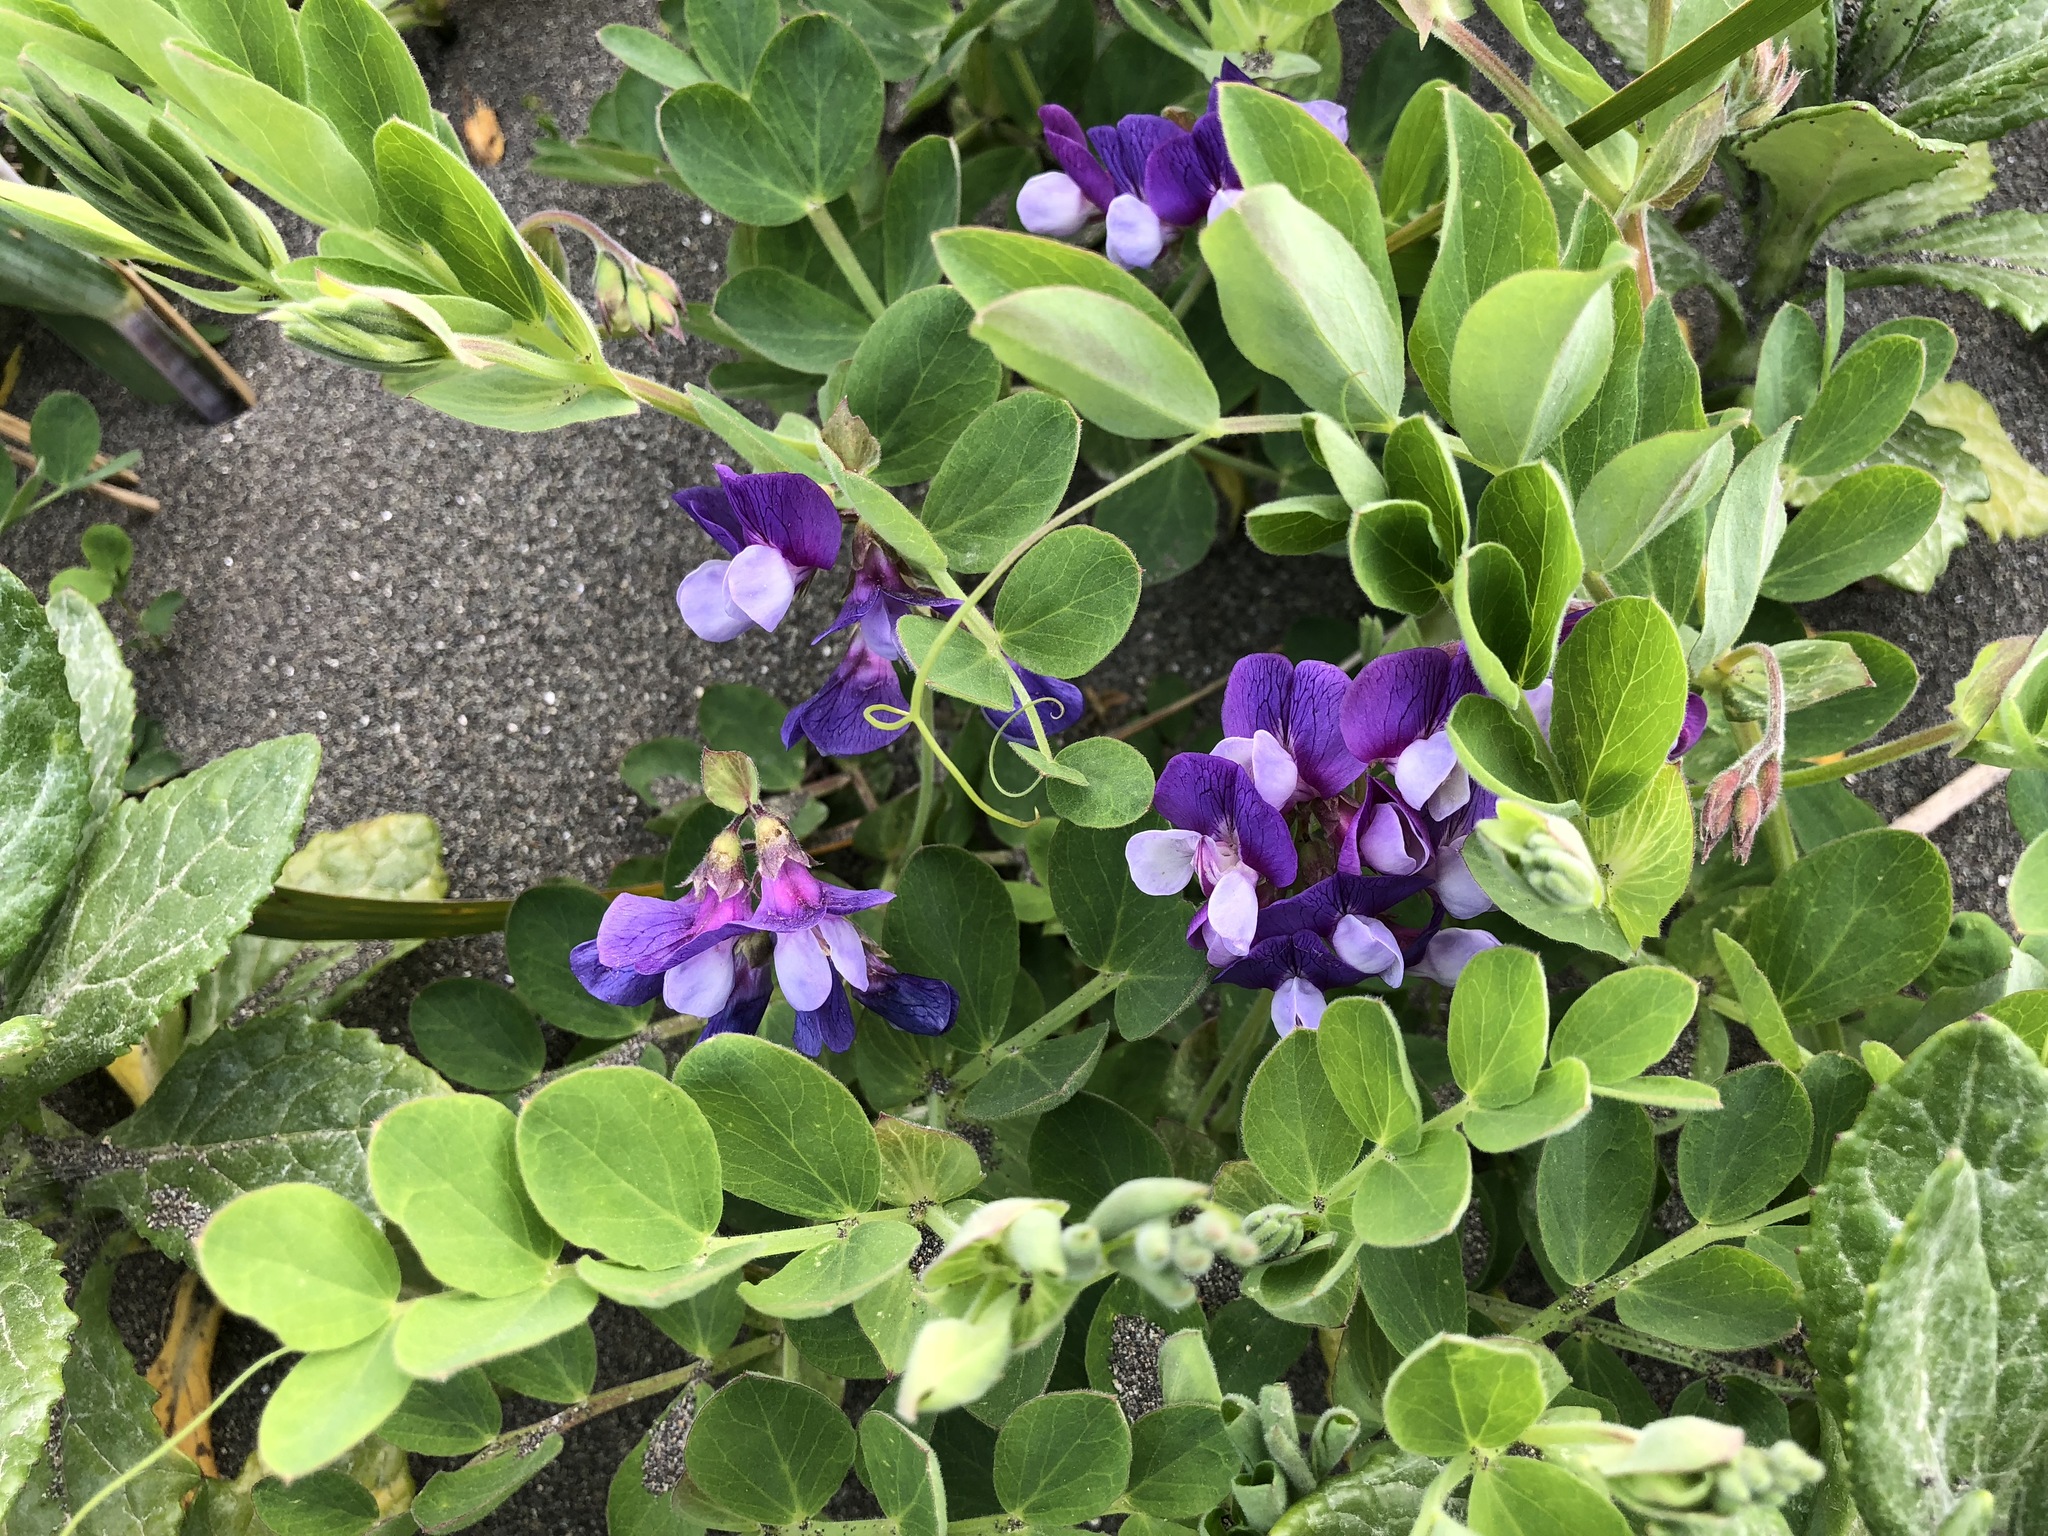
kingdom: Plantae
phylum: Tracheophyta
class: Magnoliopsida
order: Fabales
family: Fabaceae
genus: Lathyrus
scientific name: Lathyrus japonicus
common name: Sea pea
